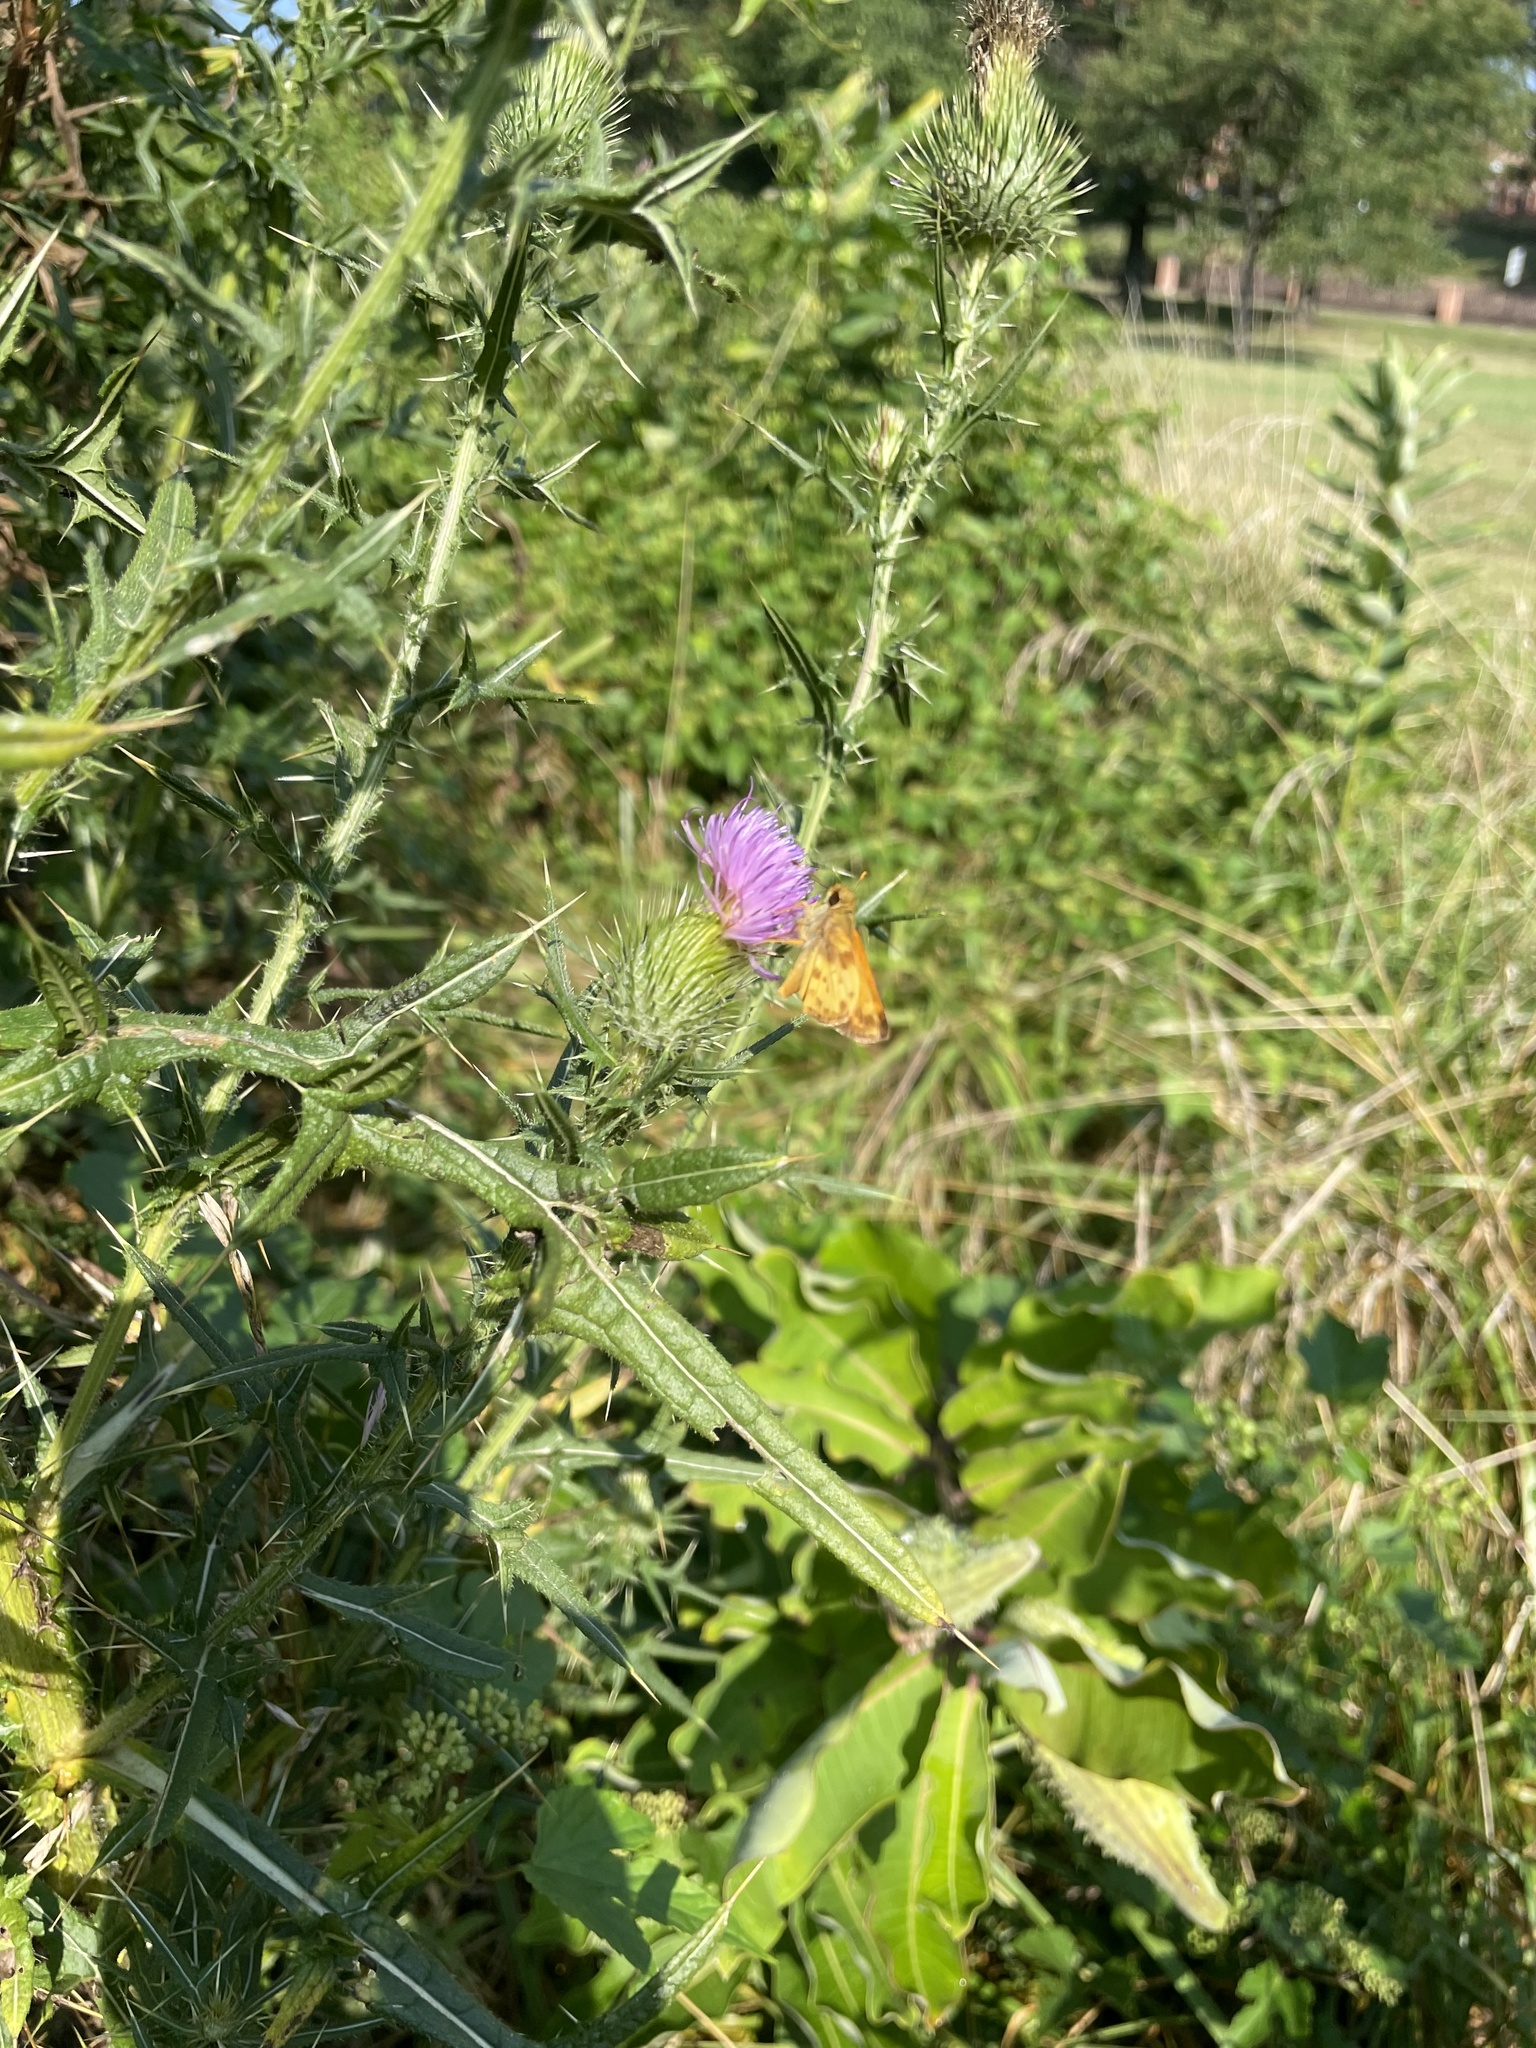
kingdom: Plantae
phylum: Tracheophyta
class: Magnoliopsida
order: Asterales
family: Asteraceae
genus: Cirsium
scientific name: Cirsium vulgare
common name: Bull thistle
